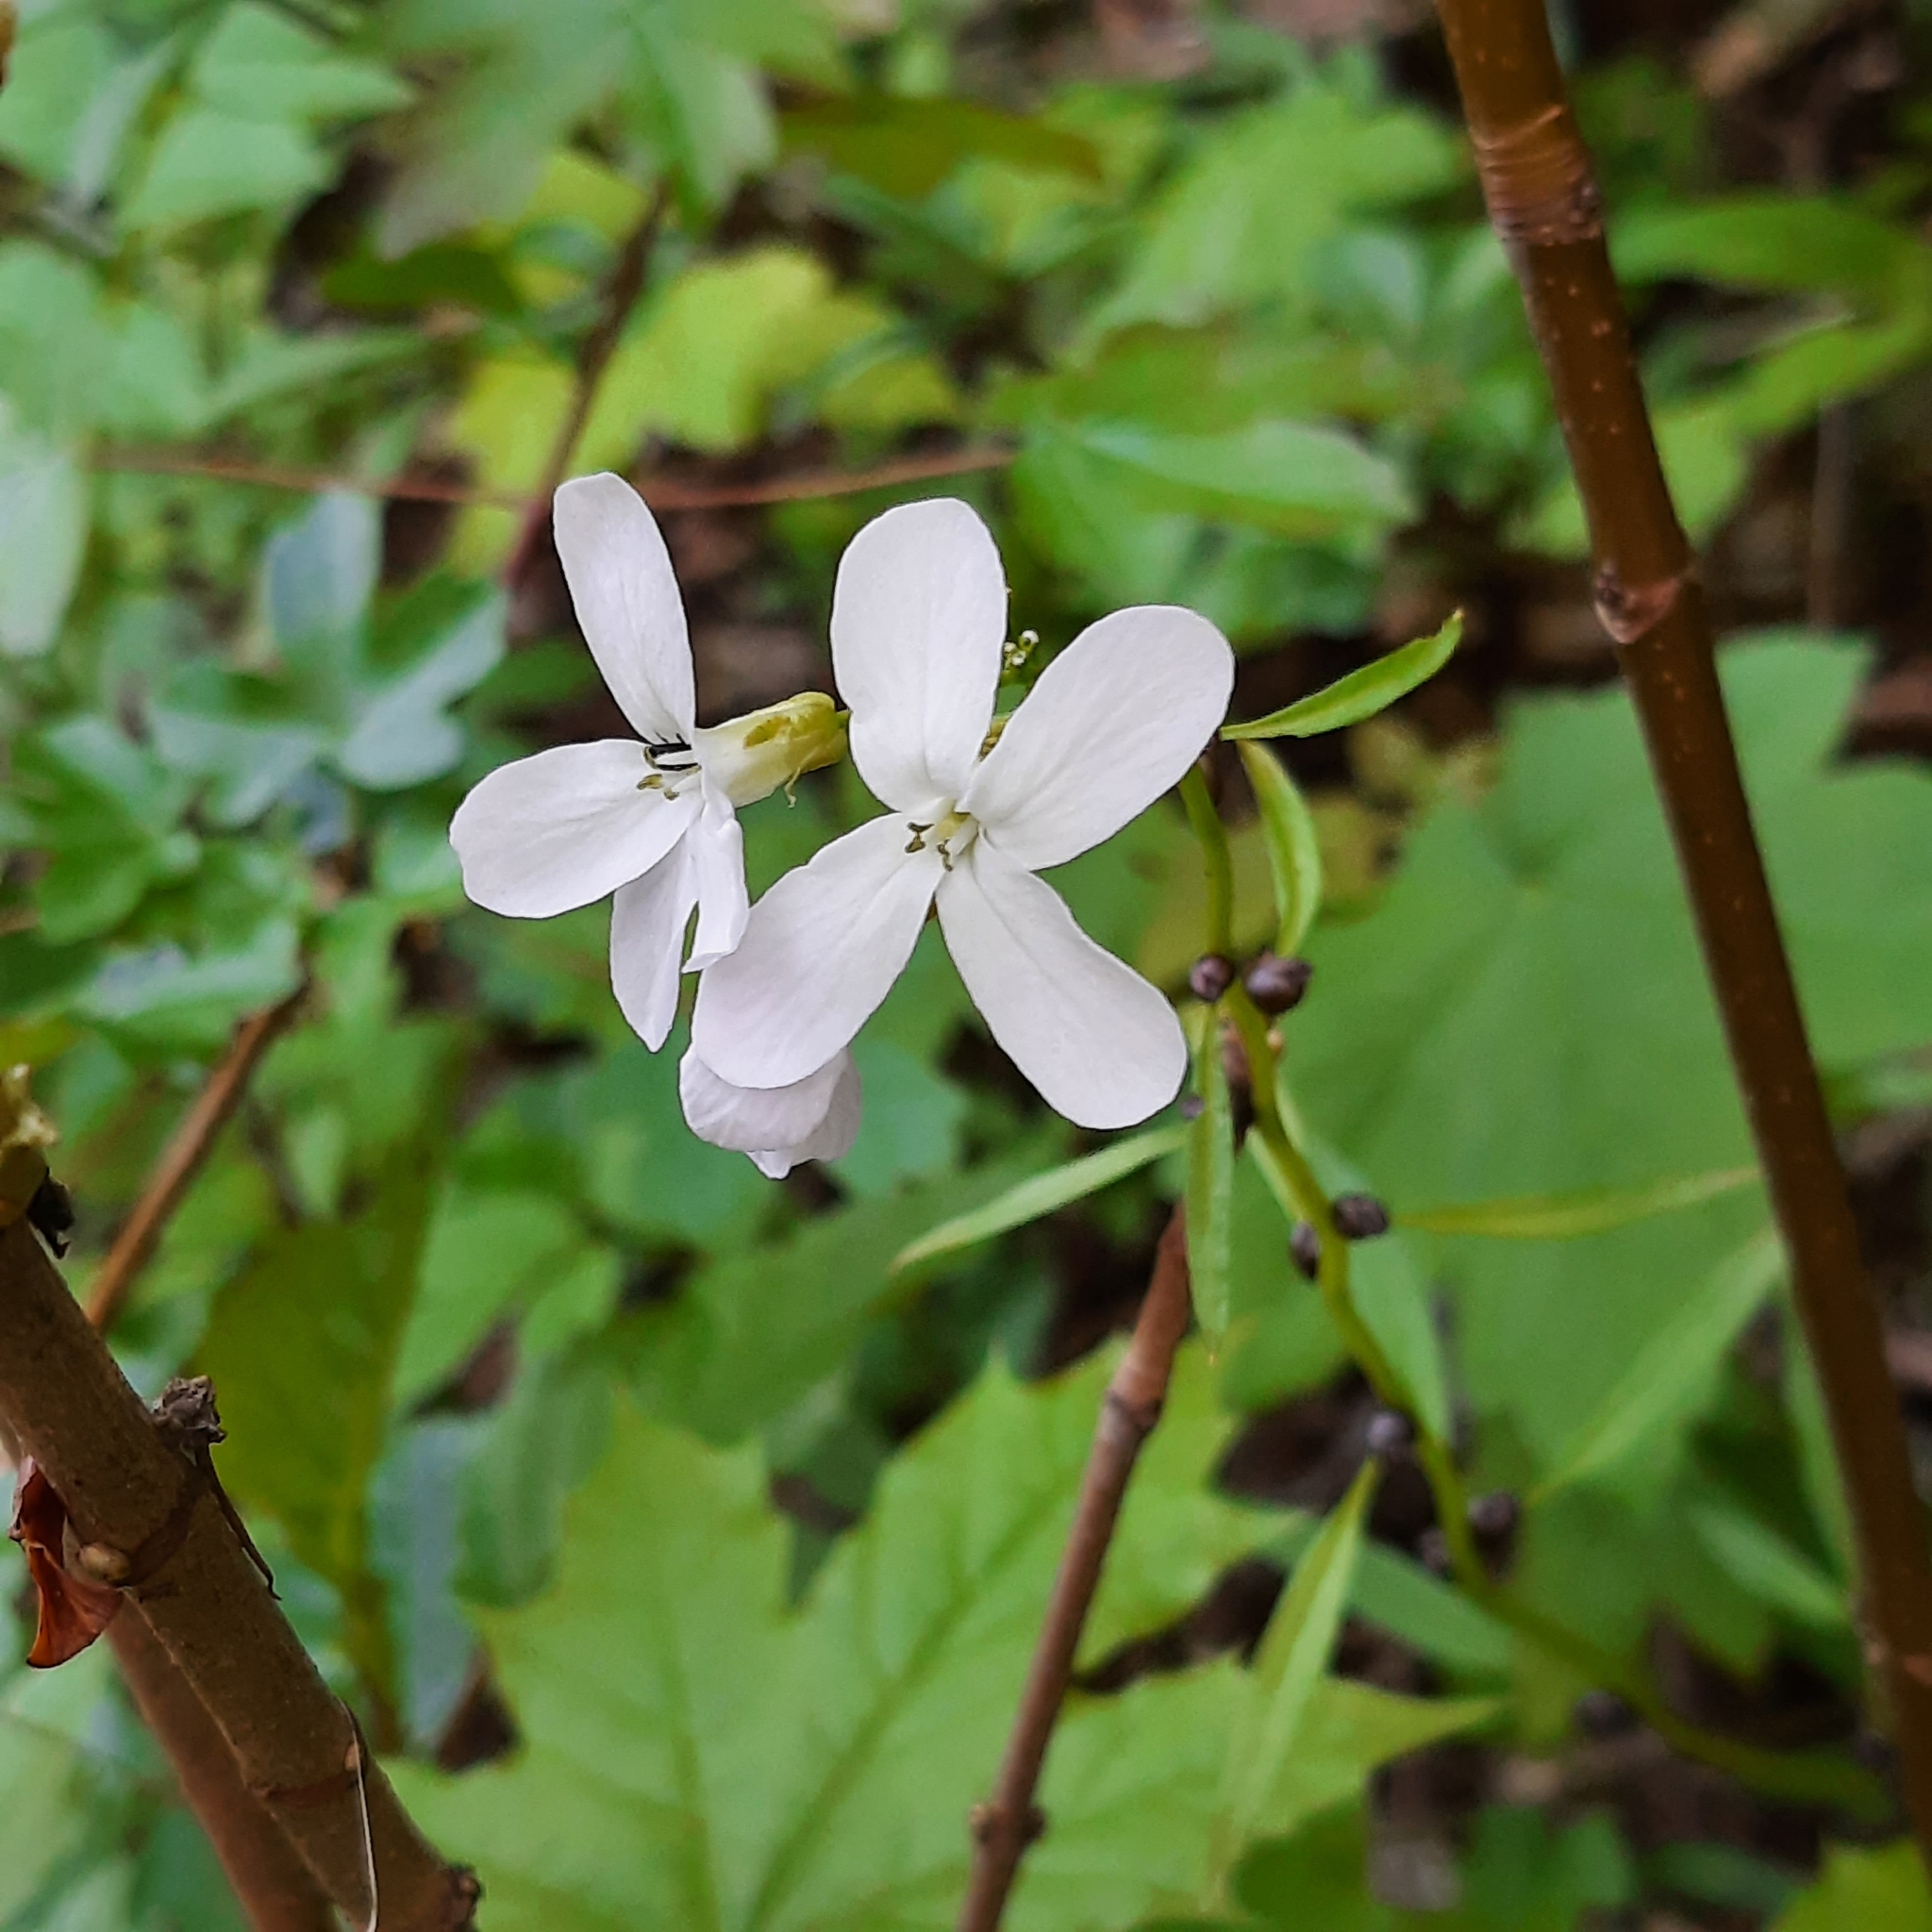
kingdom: Plantae
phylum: Tracheophyta
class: Magnoliopsida
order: Brassicales
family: Brassicaceae
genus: Cardamine
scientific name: Cardamine bulbifera
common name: Coralroot bittercress
